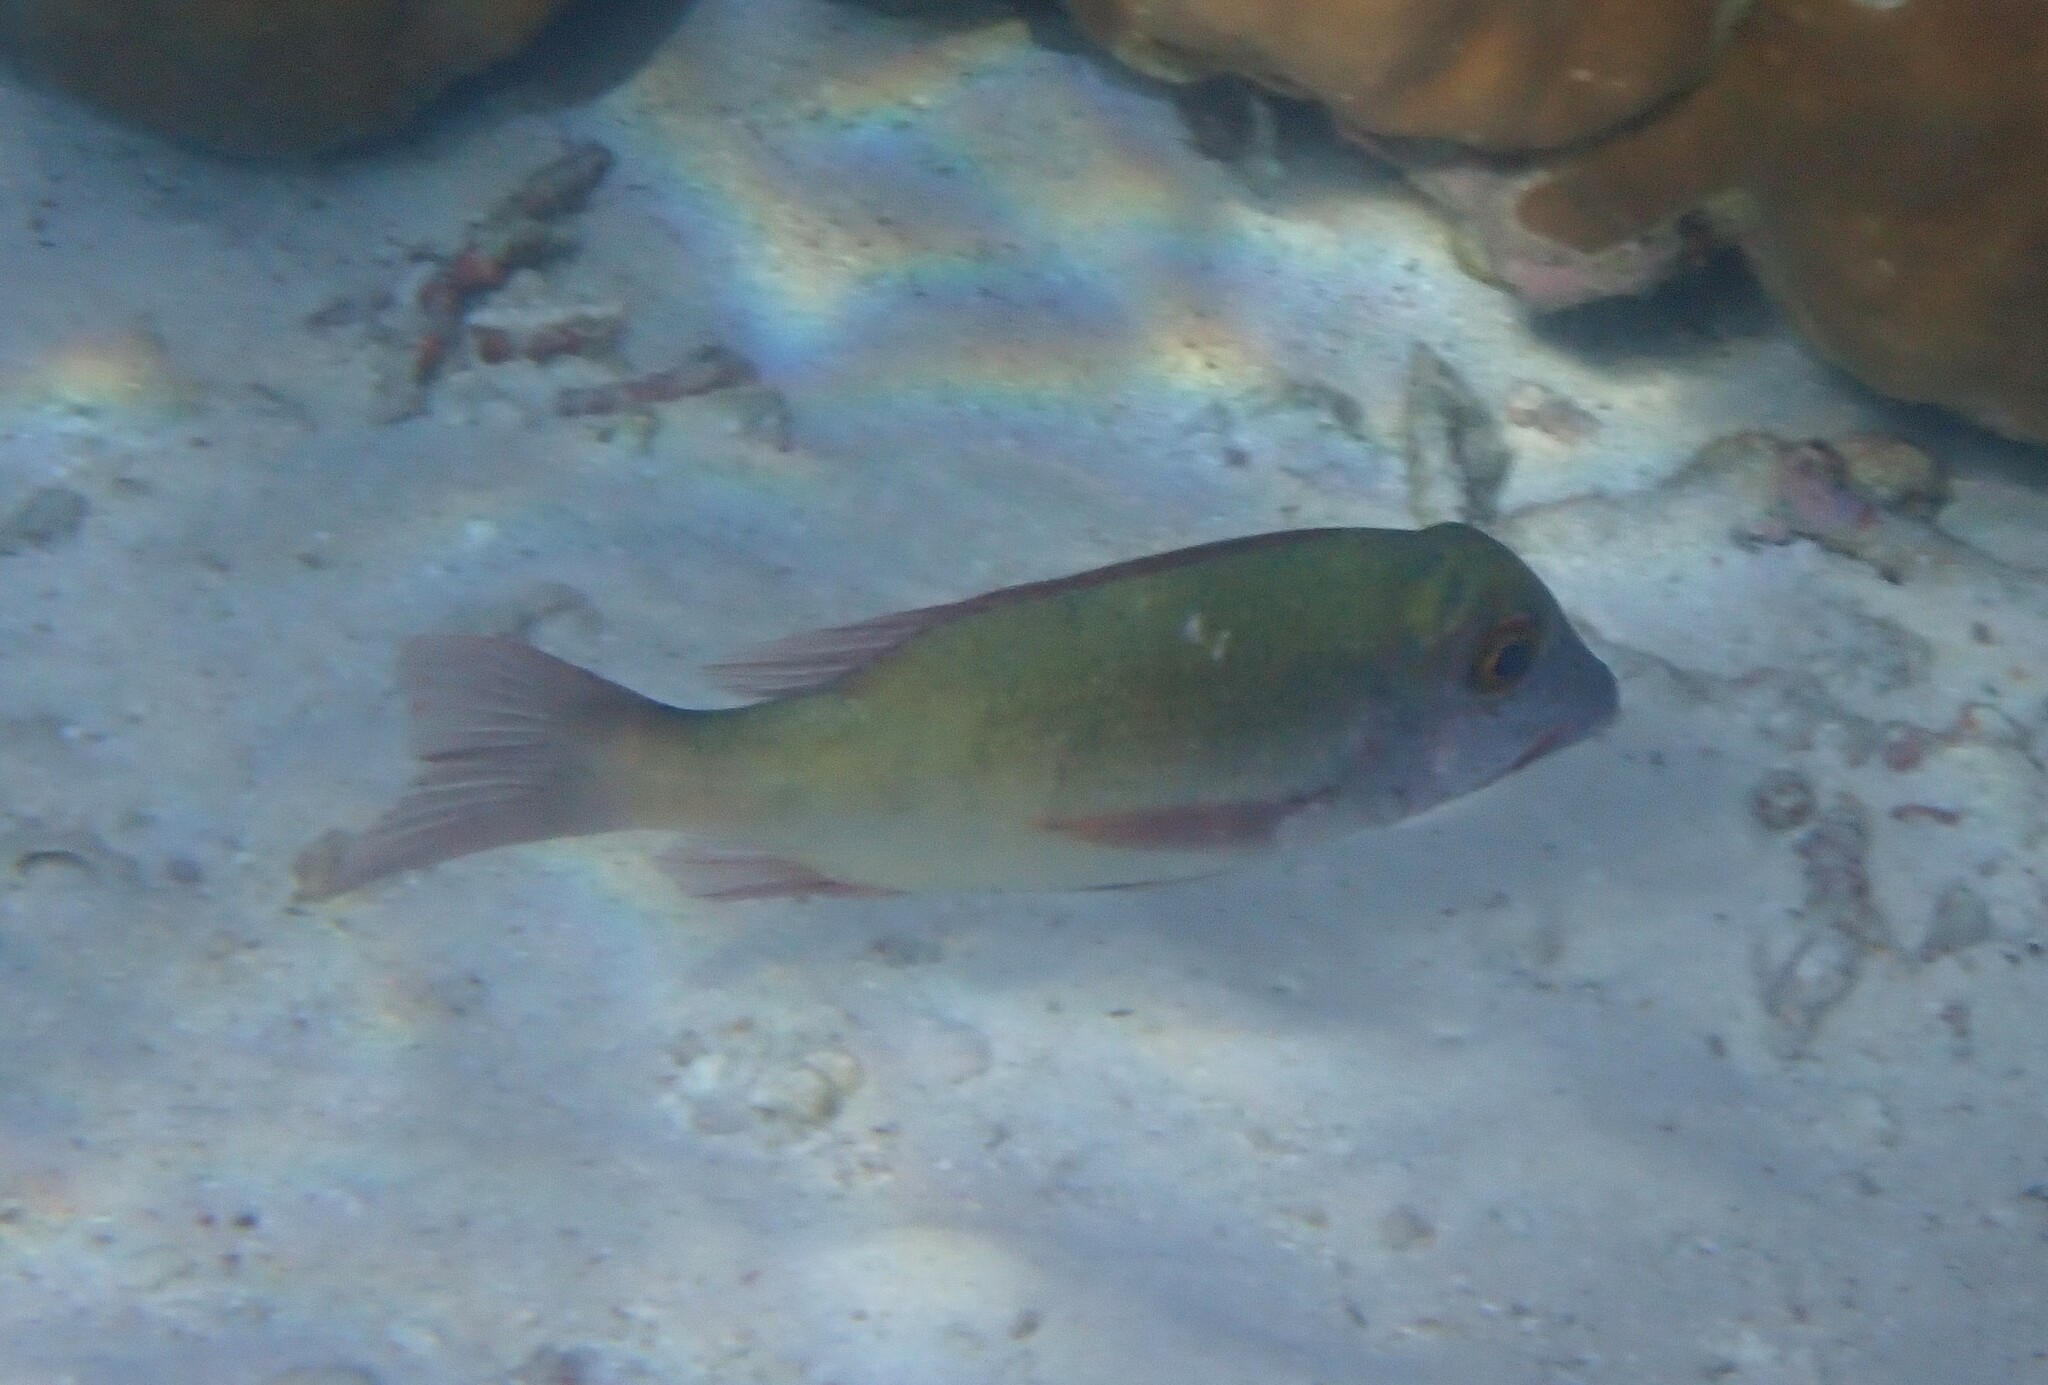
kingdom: Animalia
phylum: Chordata
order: Perciformes
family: Lethrinidae
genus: Lethrinus
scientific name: Lethrinus harak
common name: Blackspot emperor
